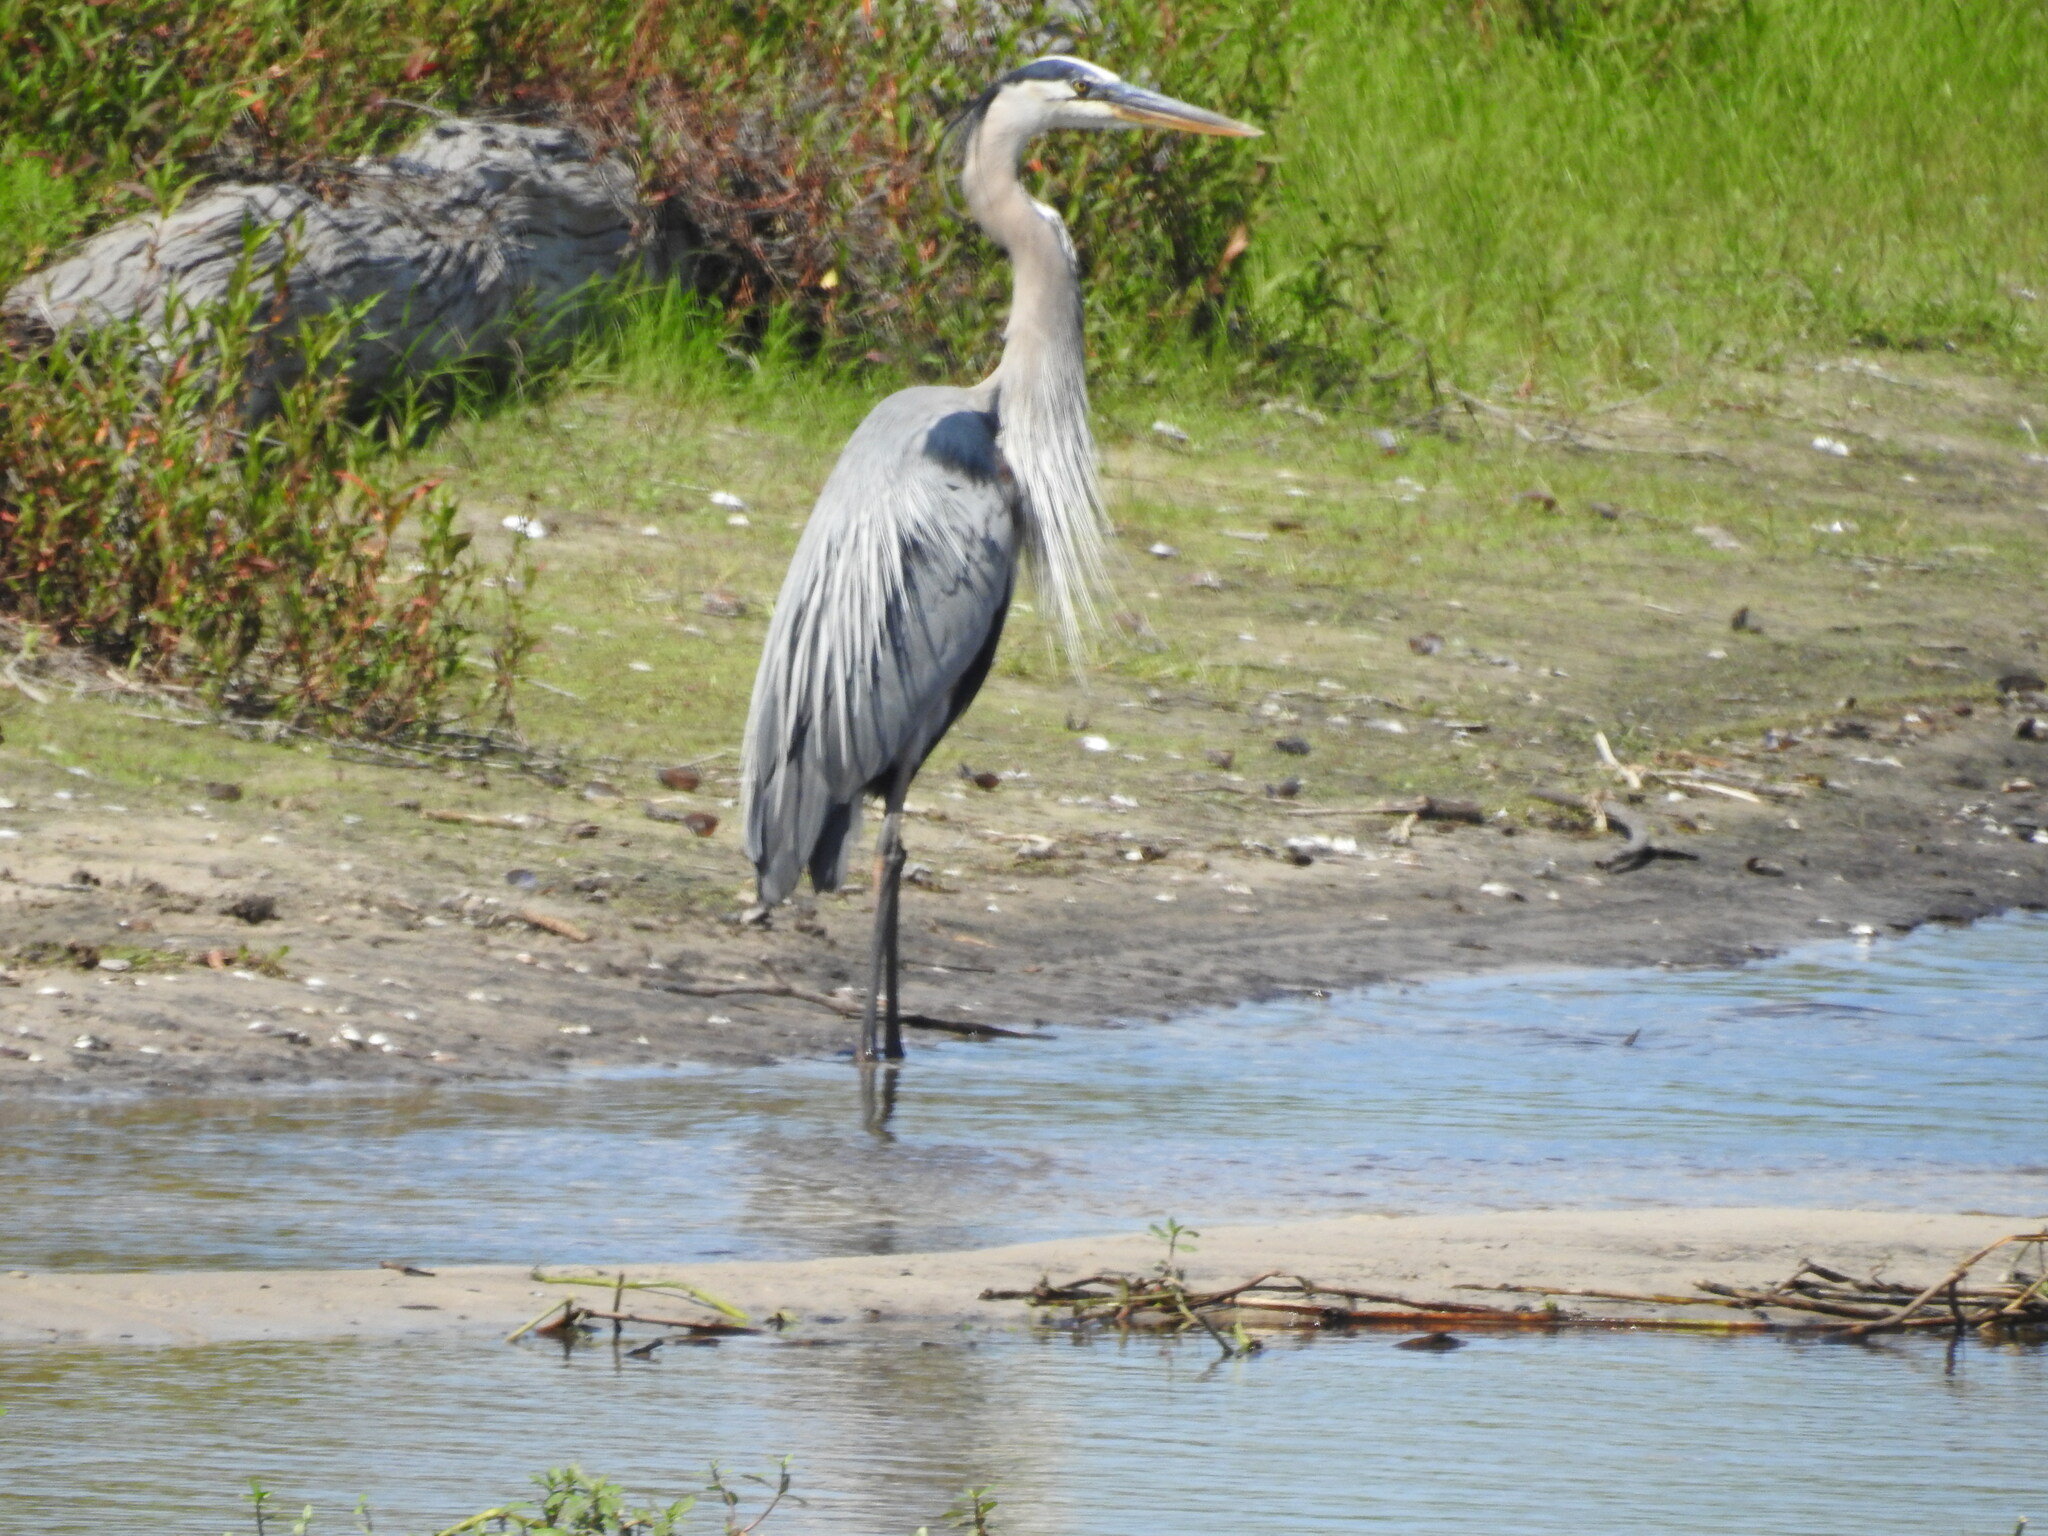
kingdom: Animalia
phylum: Chordata
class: Aves
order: Pelecaniformes
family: Ardeidae
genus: Ardea
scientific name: Ardea herodias
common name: Great blue heron
